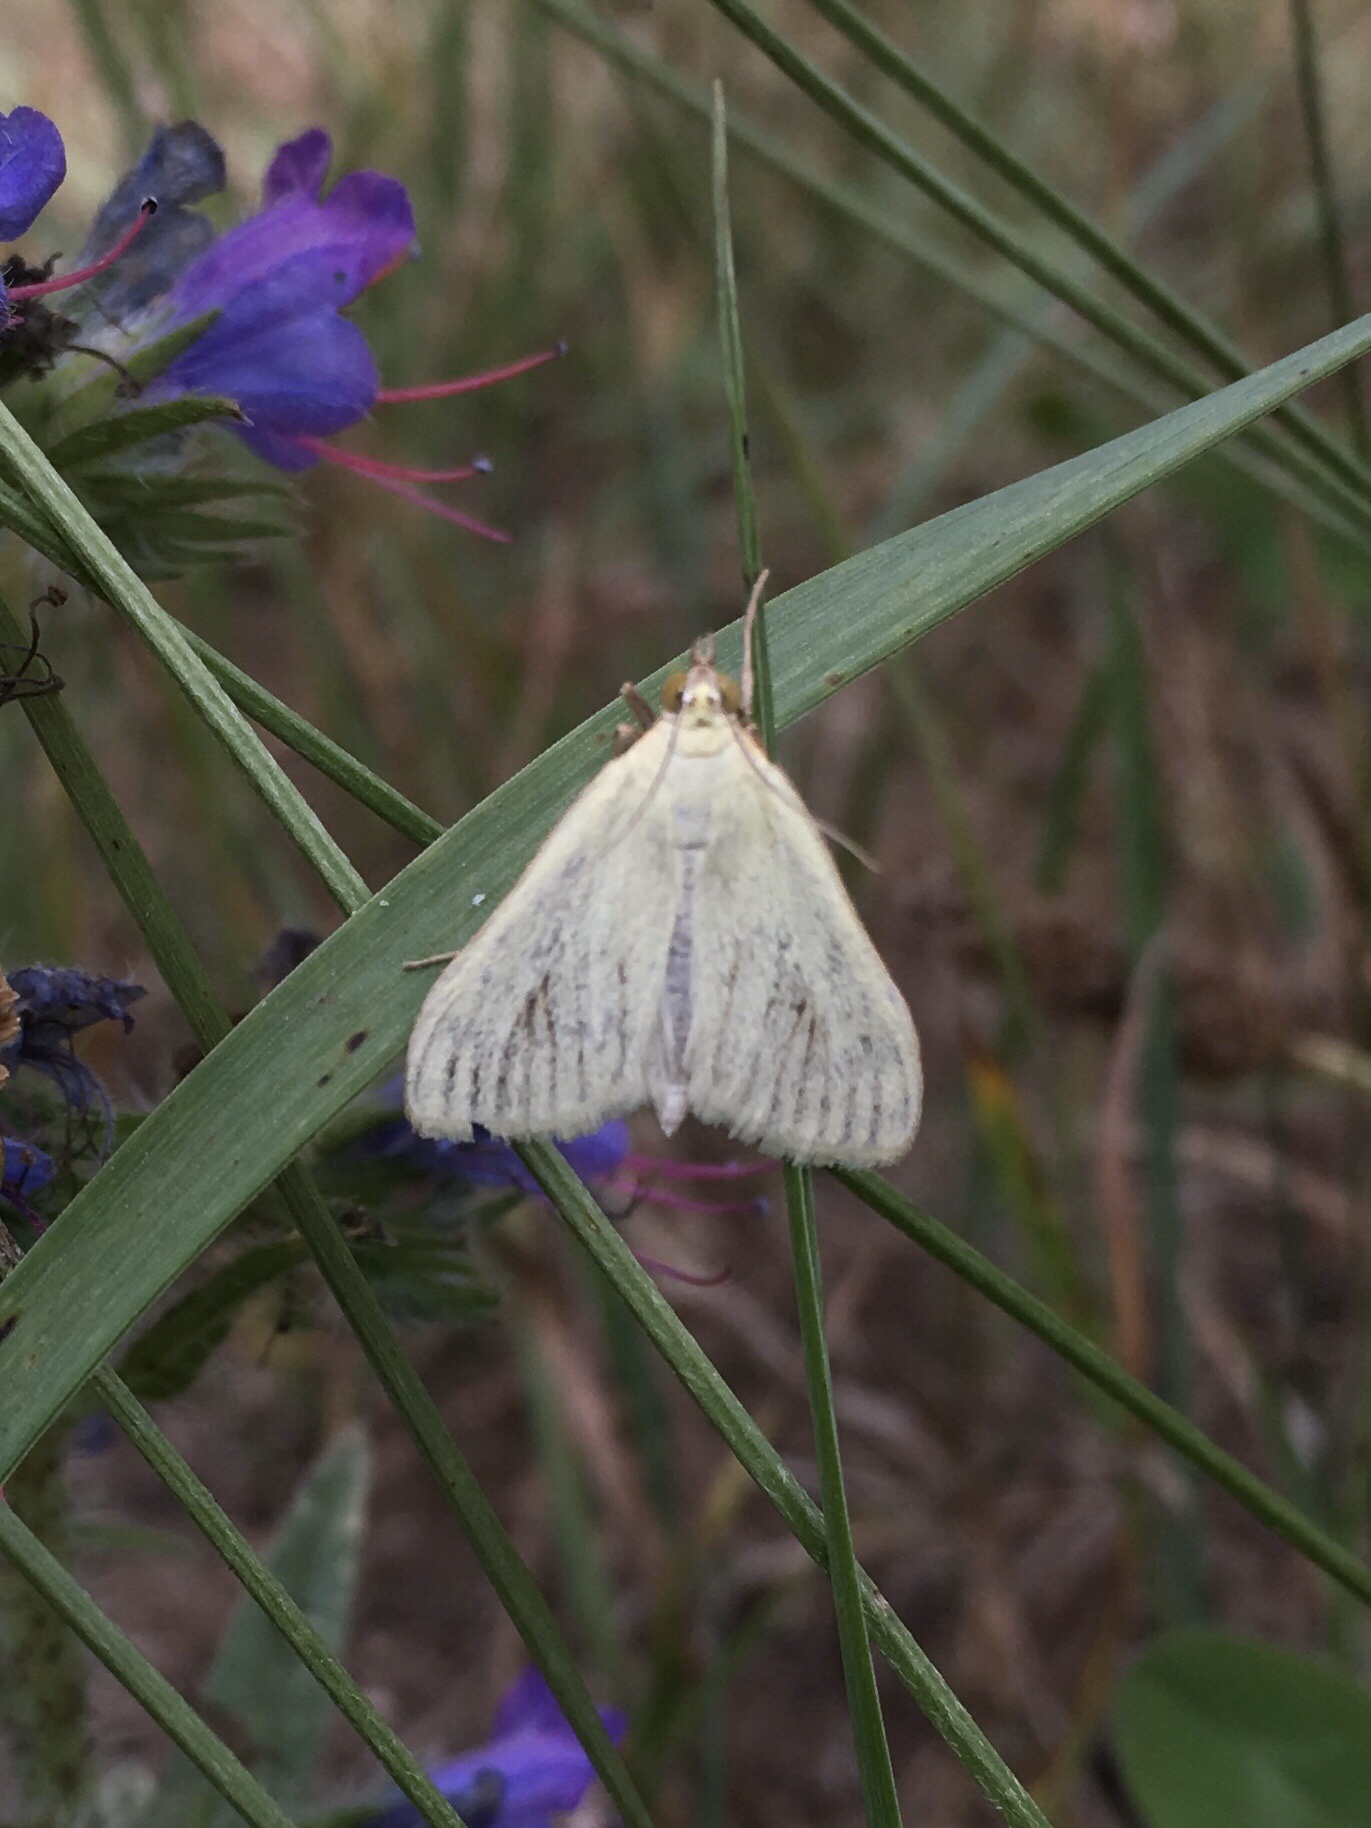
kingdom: Animalia
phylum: Arthropoda
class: Insecta
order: Lepidoptera
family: Crambidae
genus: Sitochroa
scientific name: Sitochroa palealis
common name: Greenish-yellow sitochroa moth
